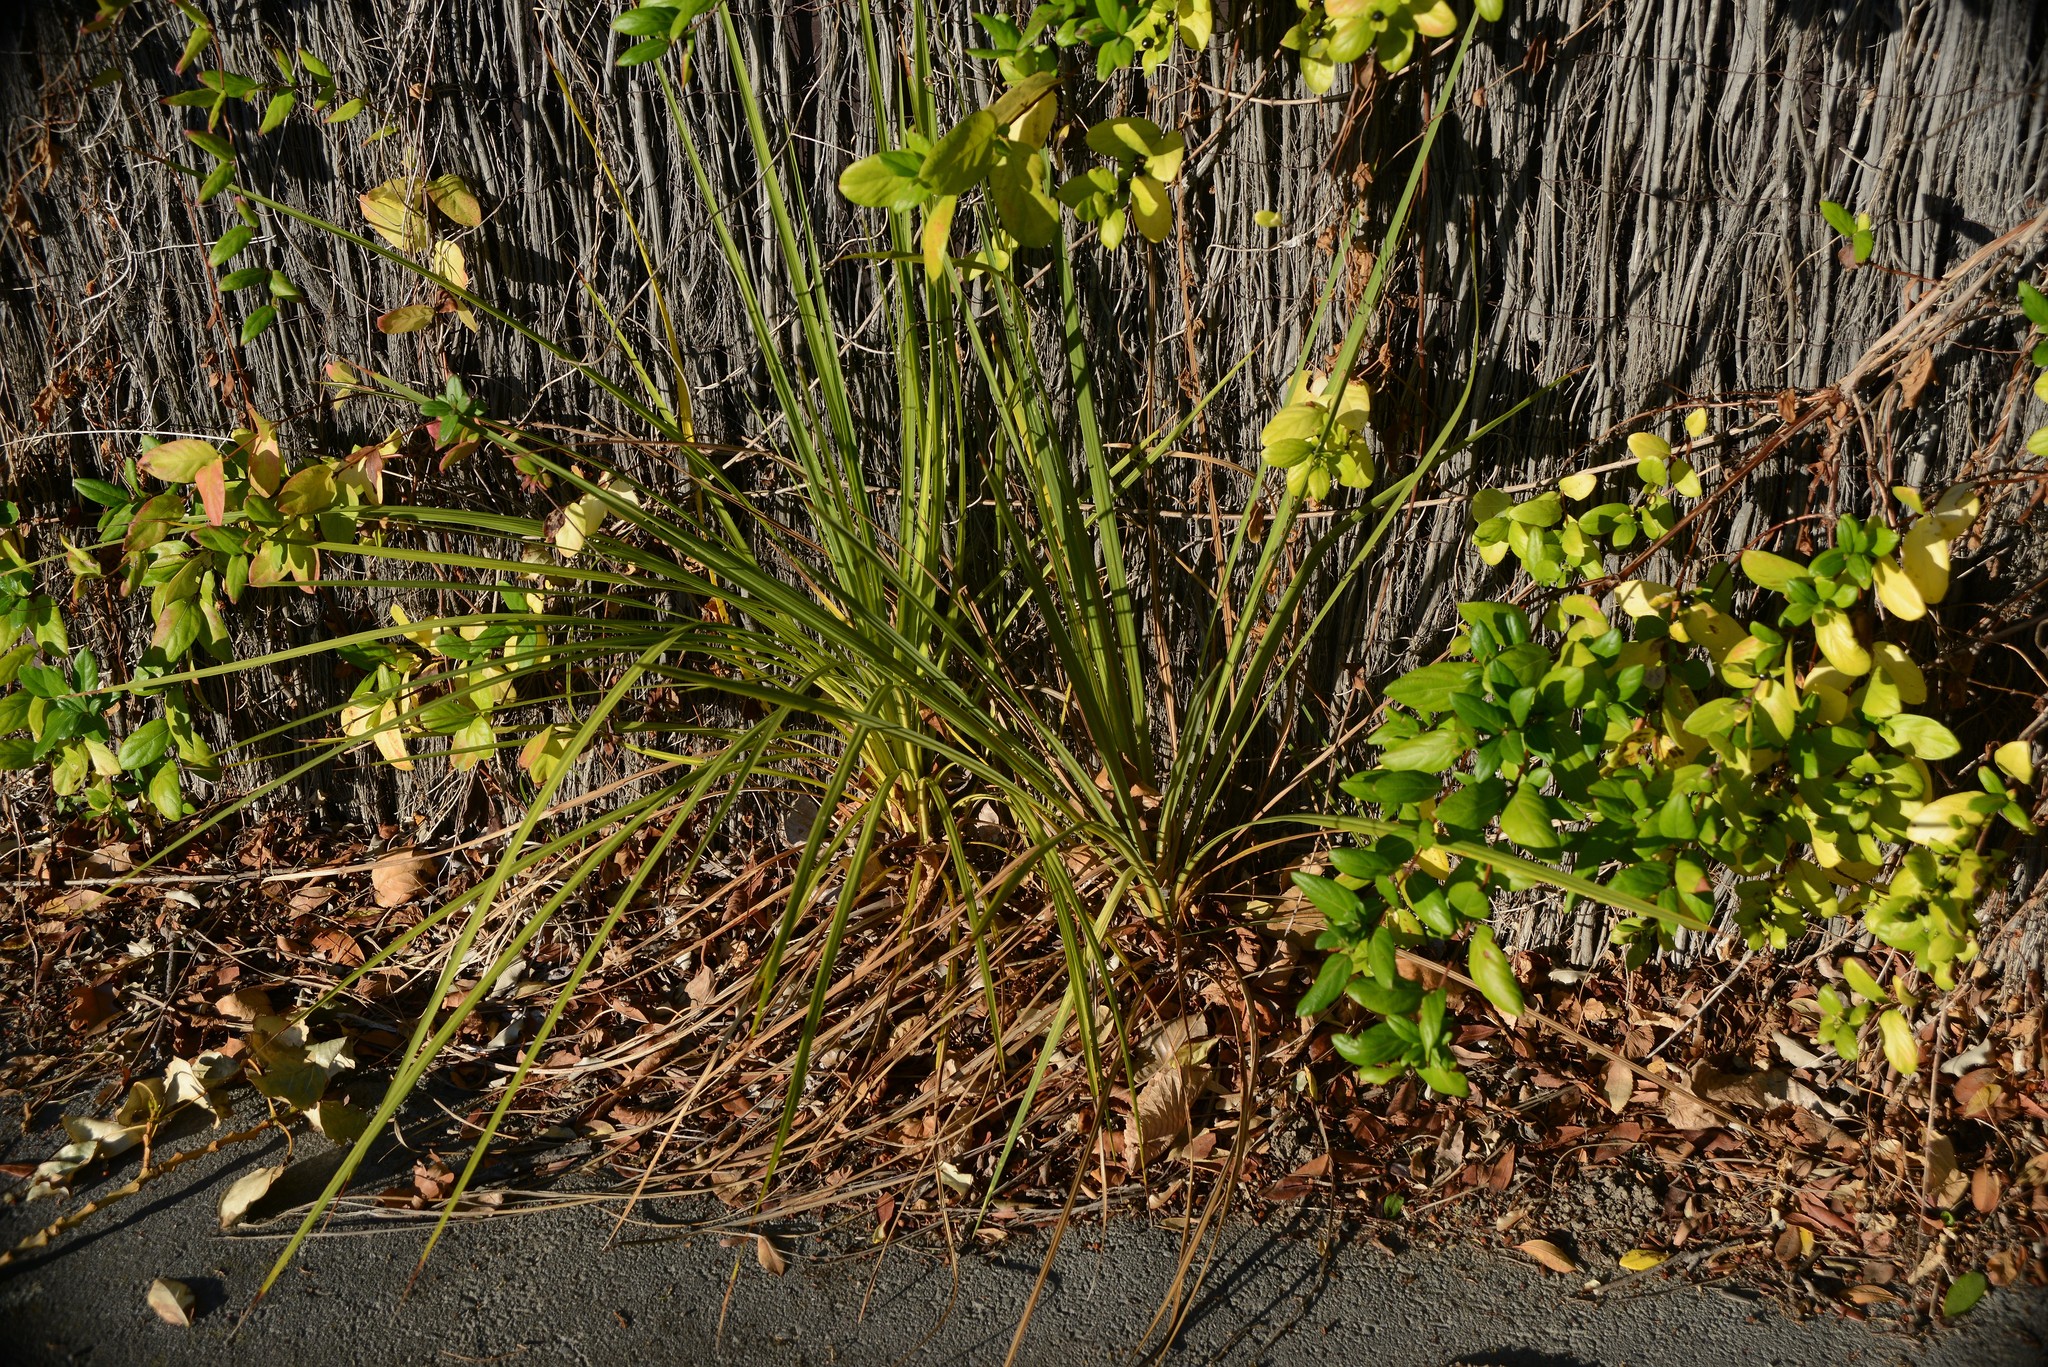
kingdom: Plantae
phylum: Tracheophyta
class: Liliopsida
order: Asparagales
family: Asparagaceae
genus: Cordyline
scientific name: Cordyline australis
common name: Cabbage-palm
